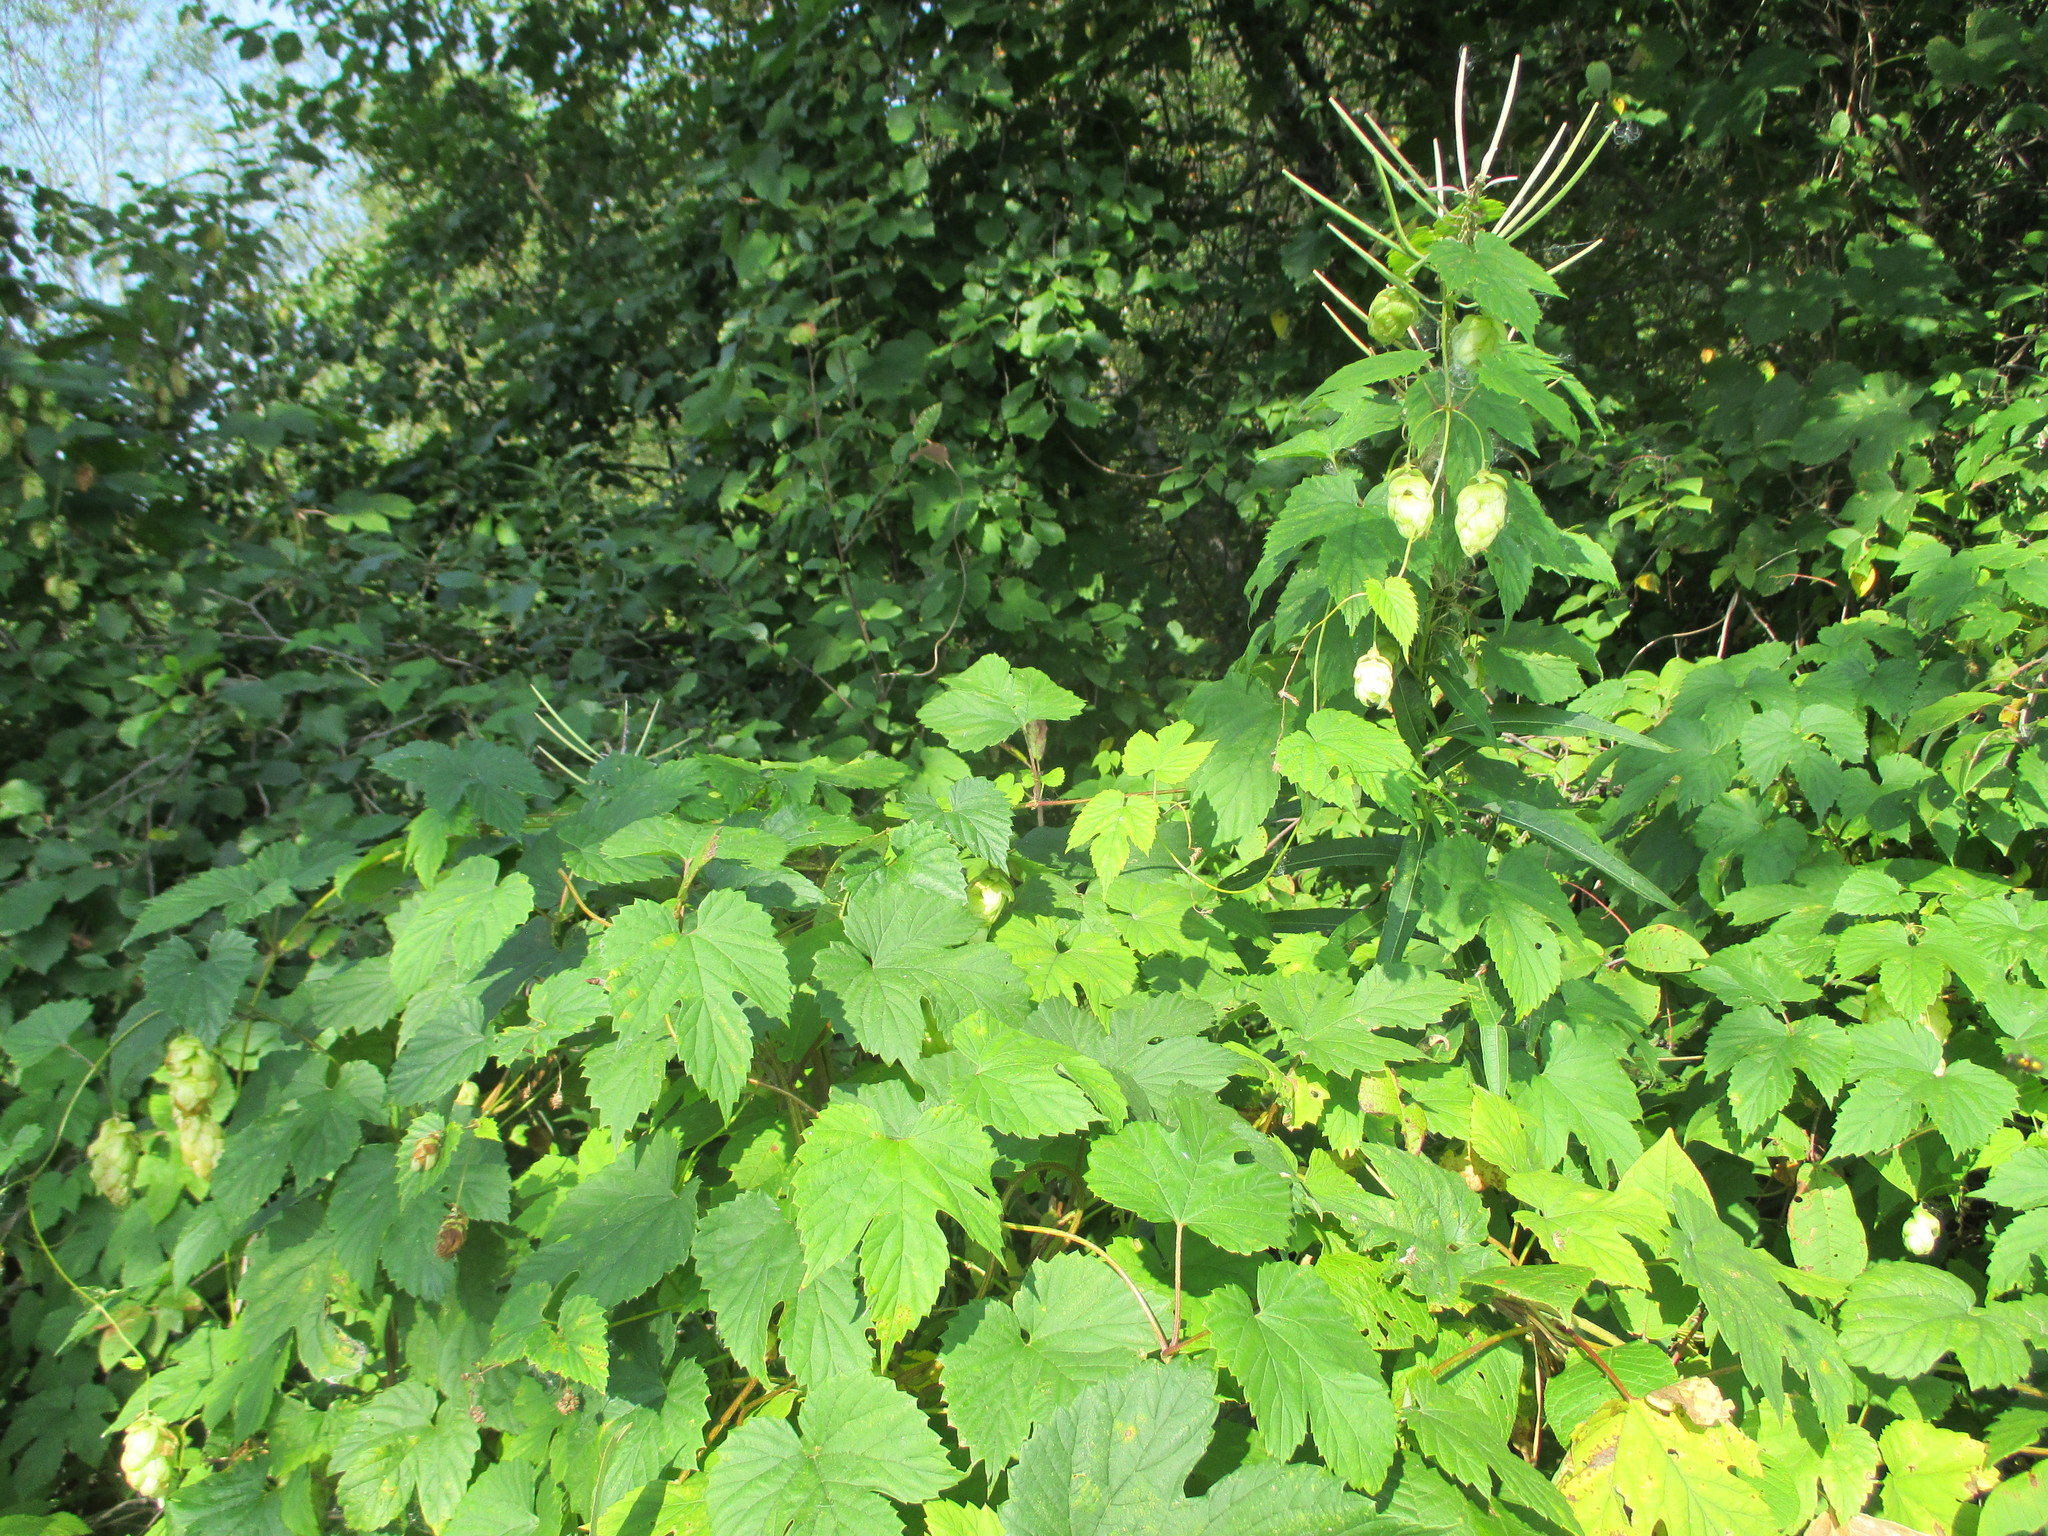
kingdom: Plantae
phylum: Tracheophyta
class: Magnoliopsida
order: Rosales
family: Cannabaceae
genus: Humulus
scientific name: Humulus lupulus
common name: Hop
